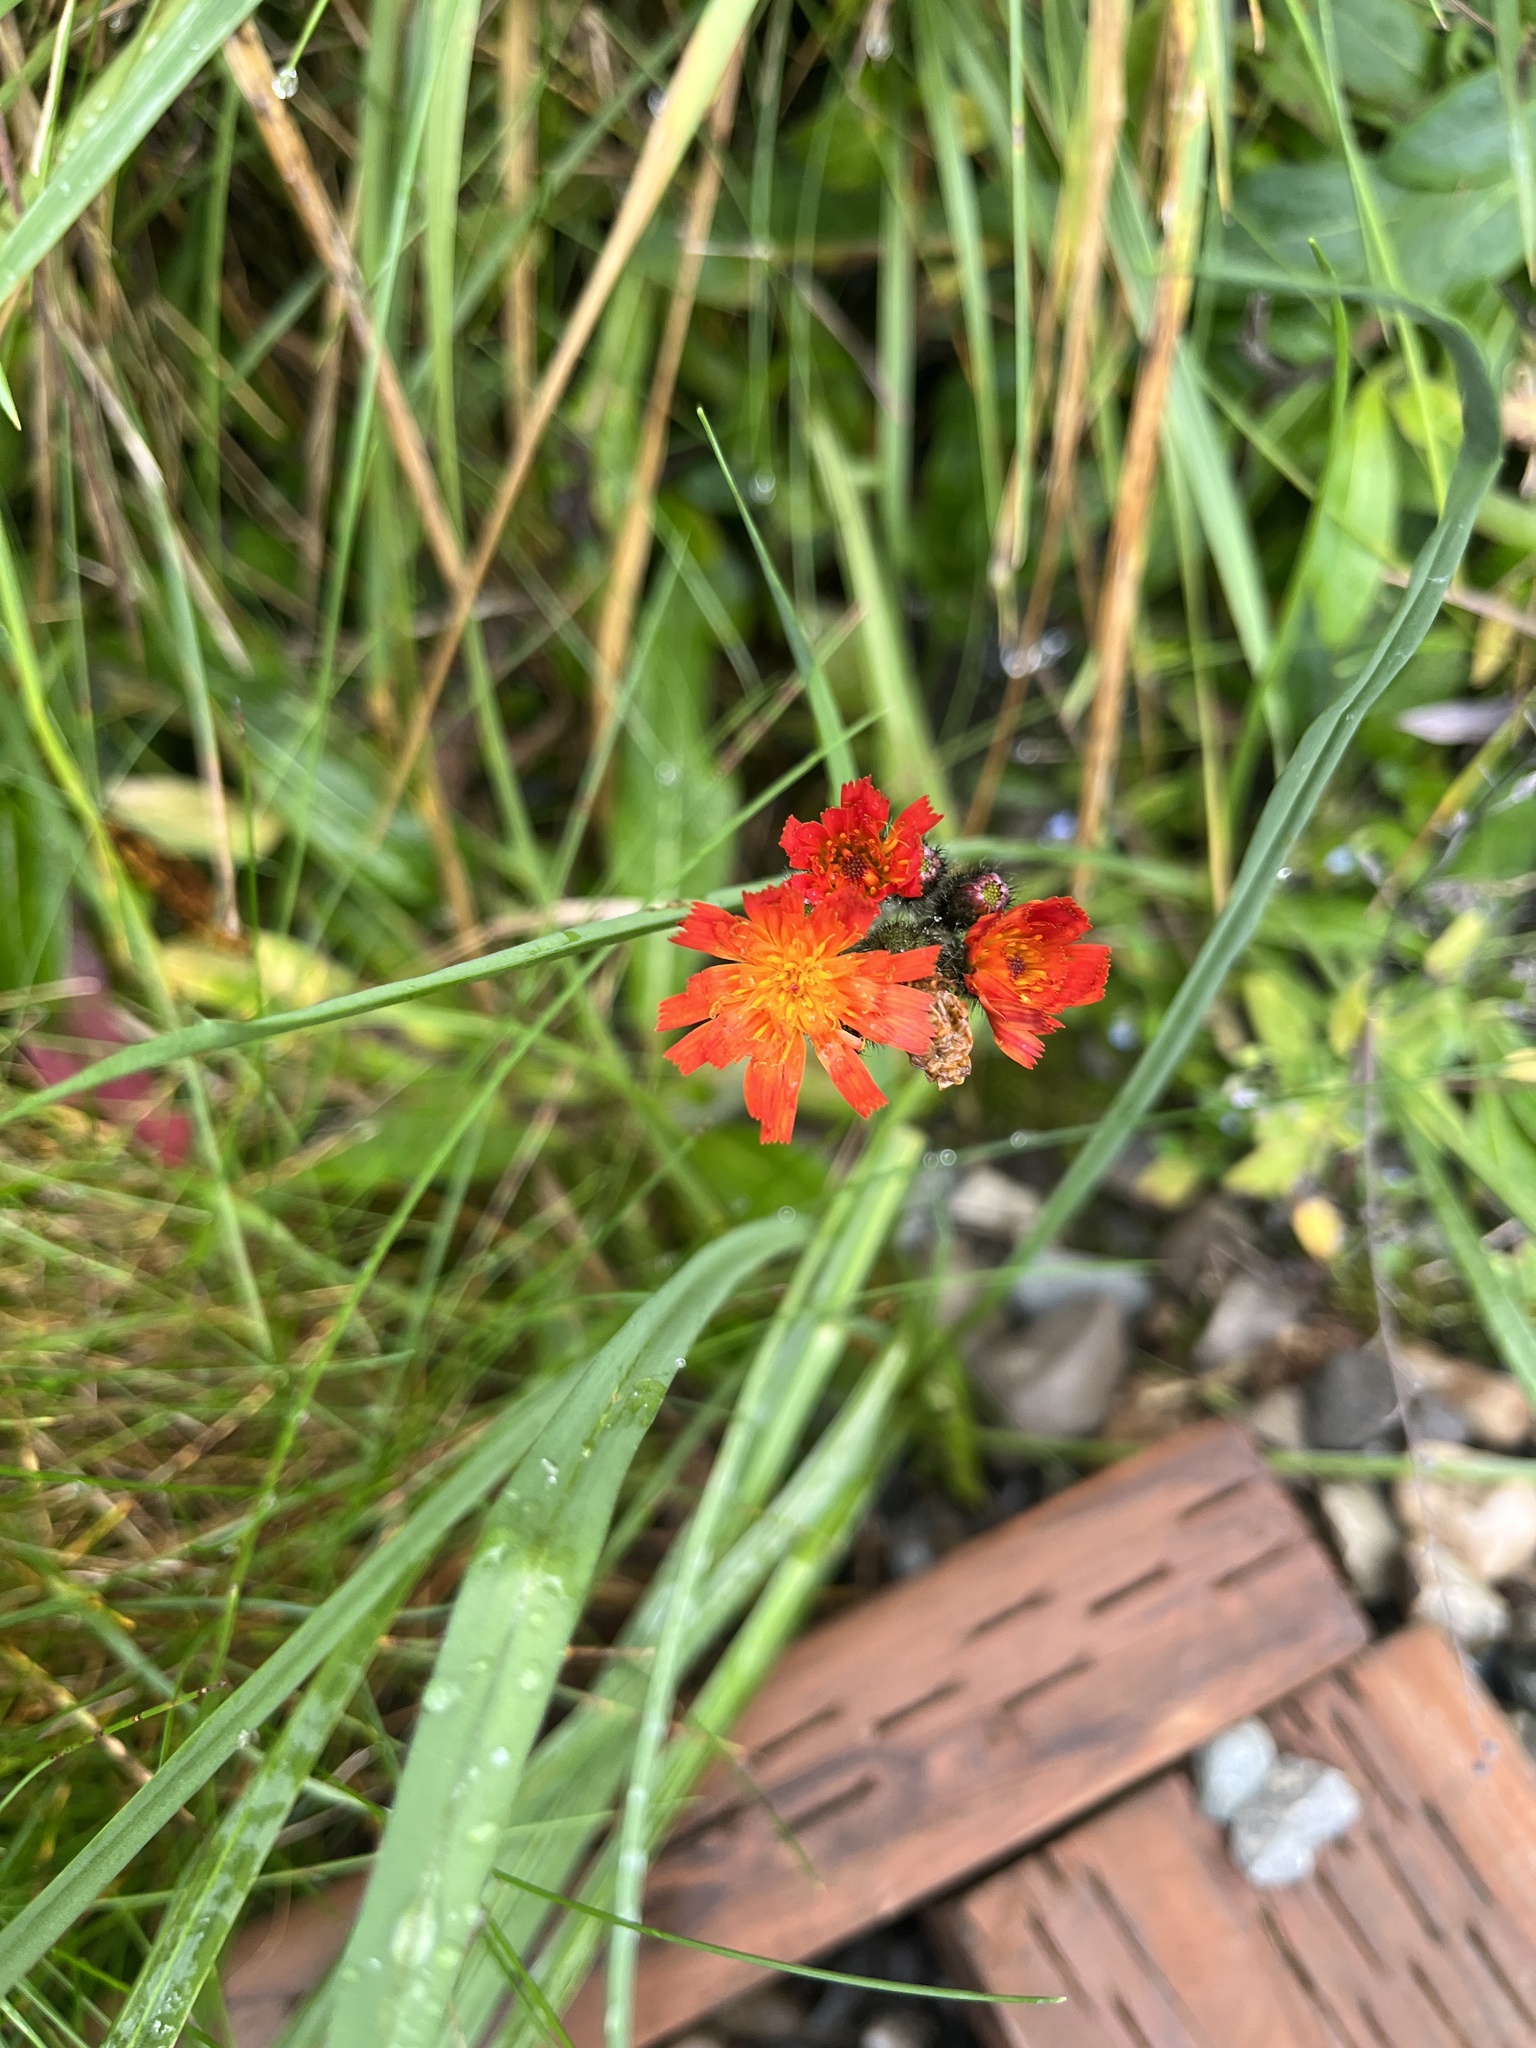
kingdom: Plantae
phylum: Tracheophyta
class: Magnoliopsida
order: Asterales
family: Asteraceae
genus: Pilosella
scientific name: Pilosella aurantiaca
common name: Fox-and-cubs
